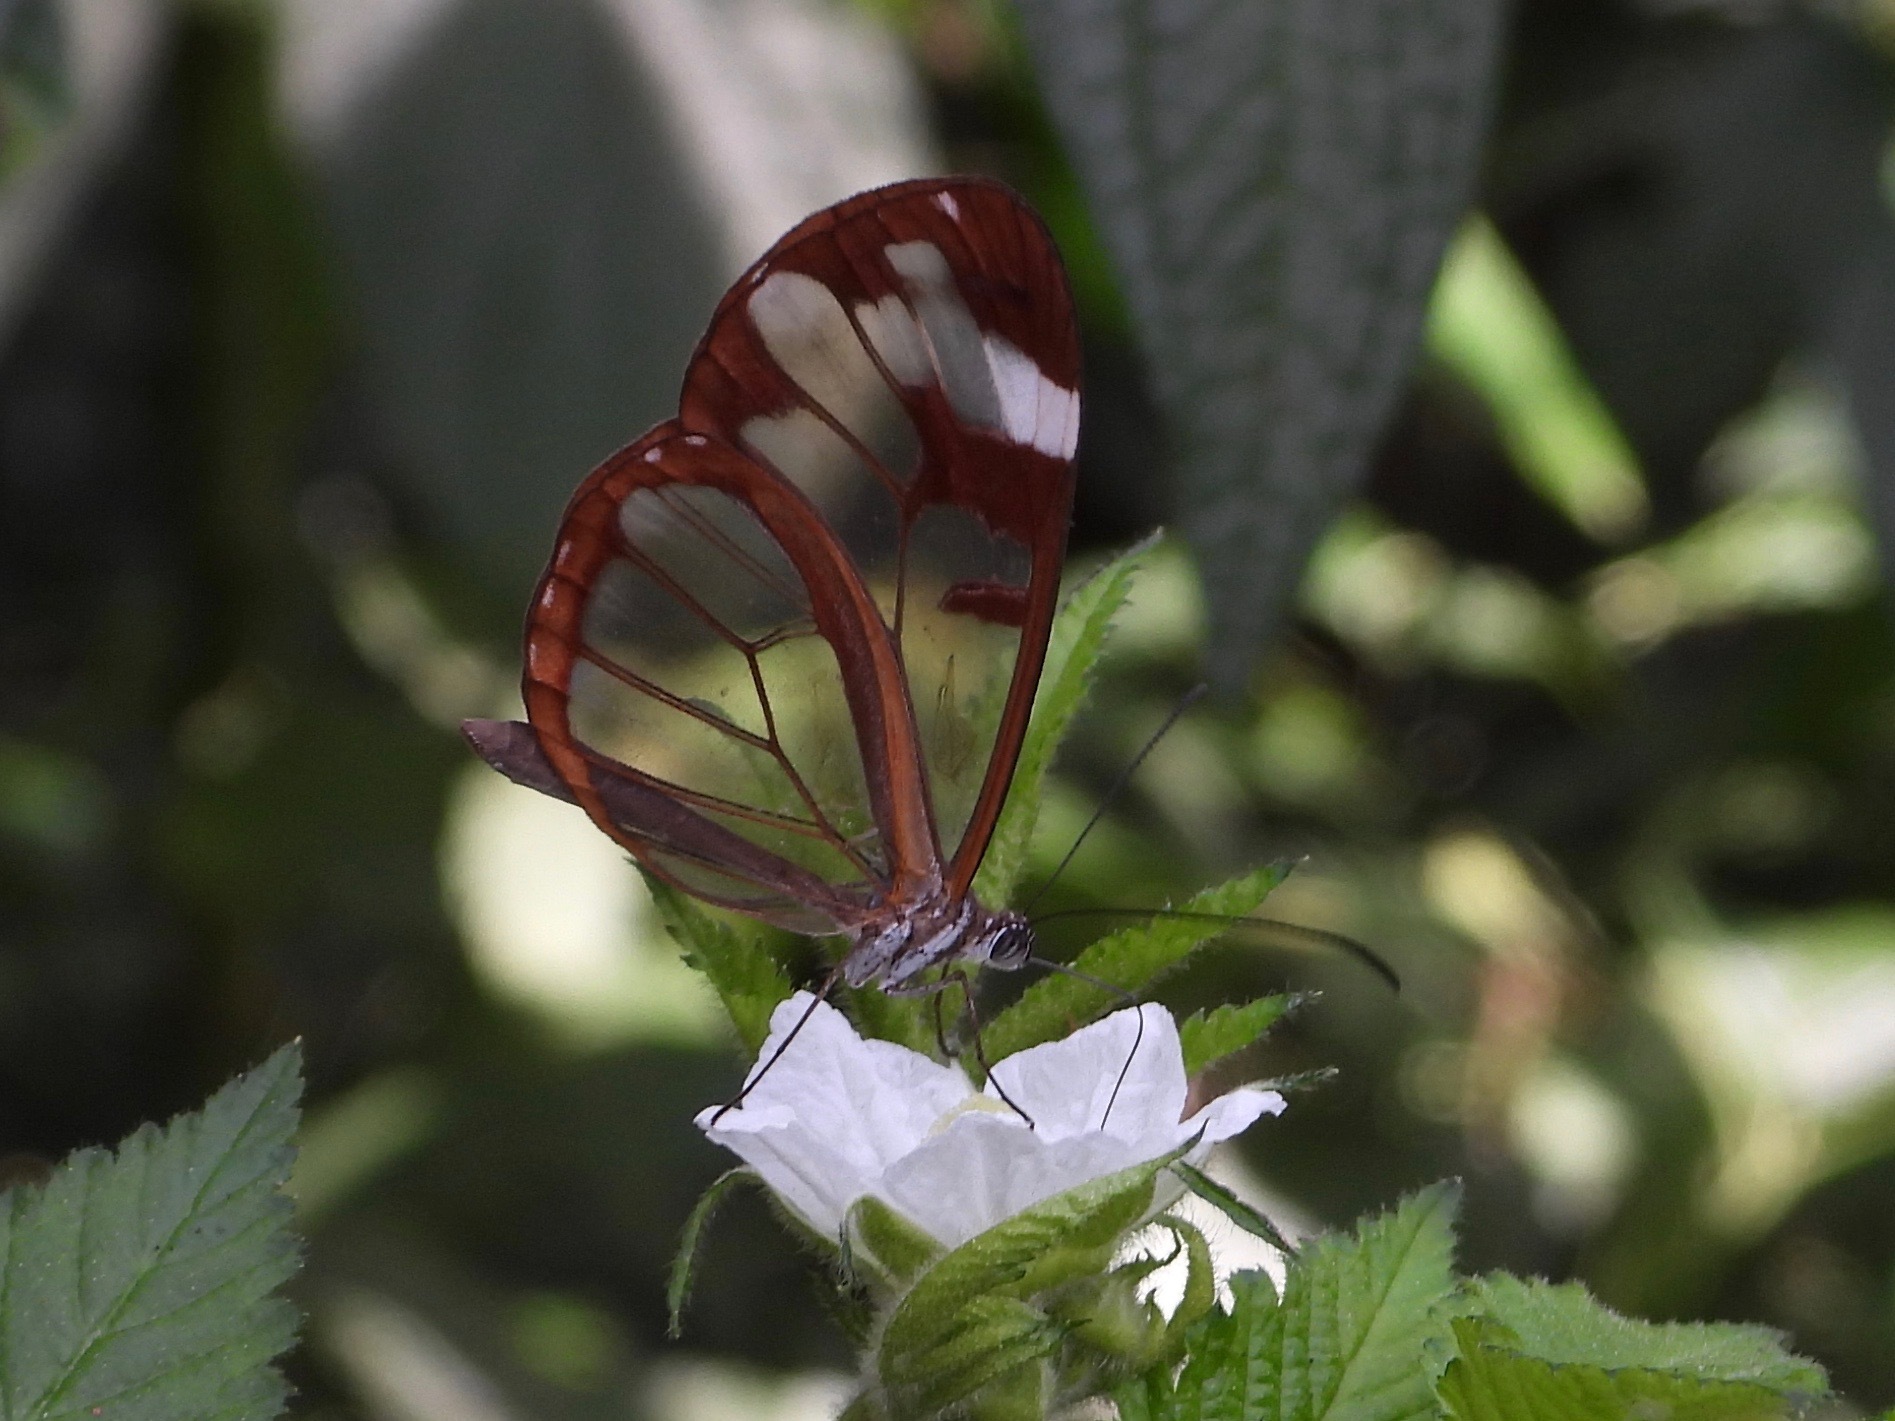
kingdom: Animalia
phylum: Arthropoda
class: Insecta
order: Lepidoptera
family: Nymphalidae
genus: Oleria
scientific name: Oleria zea
